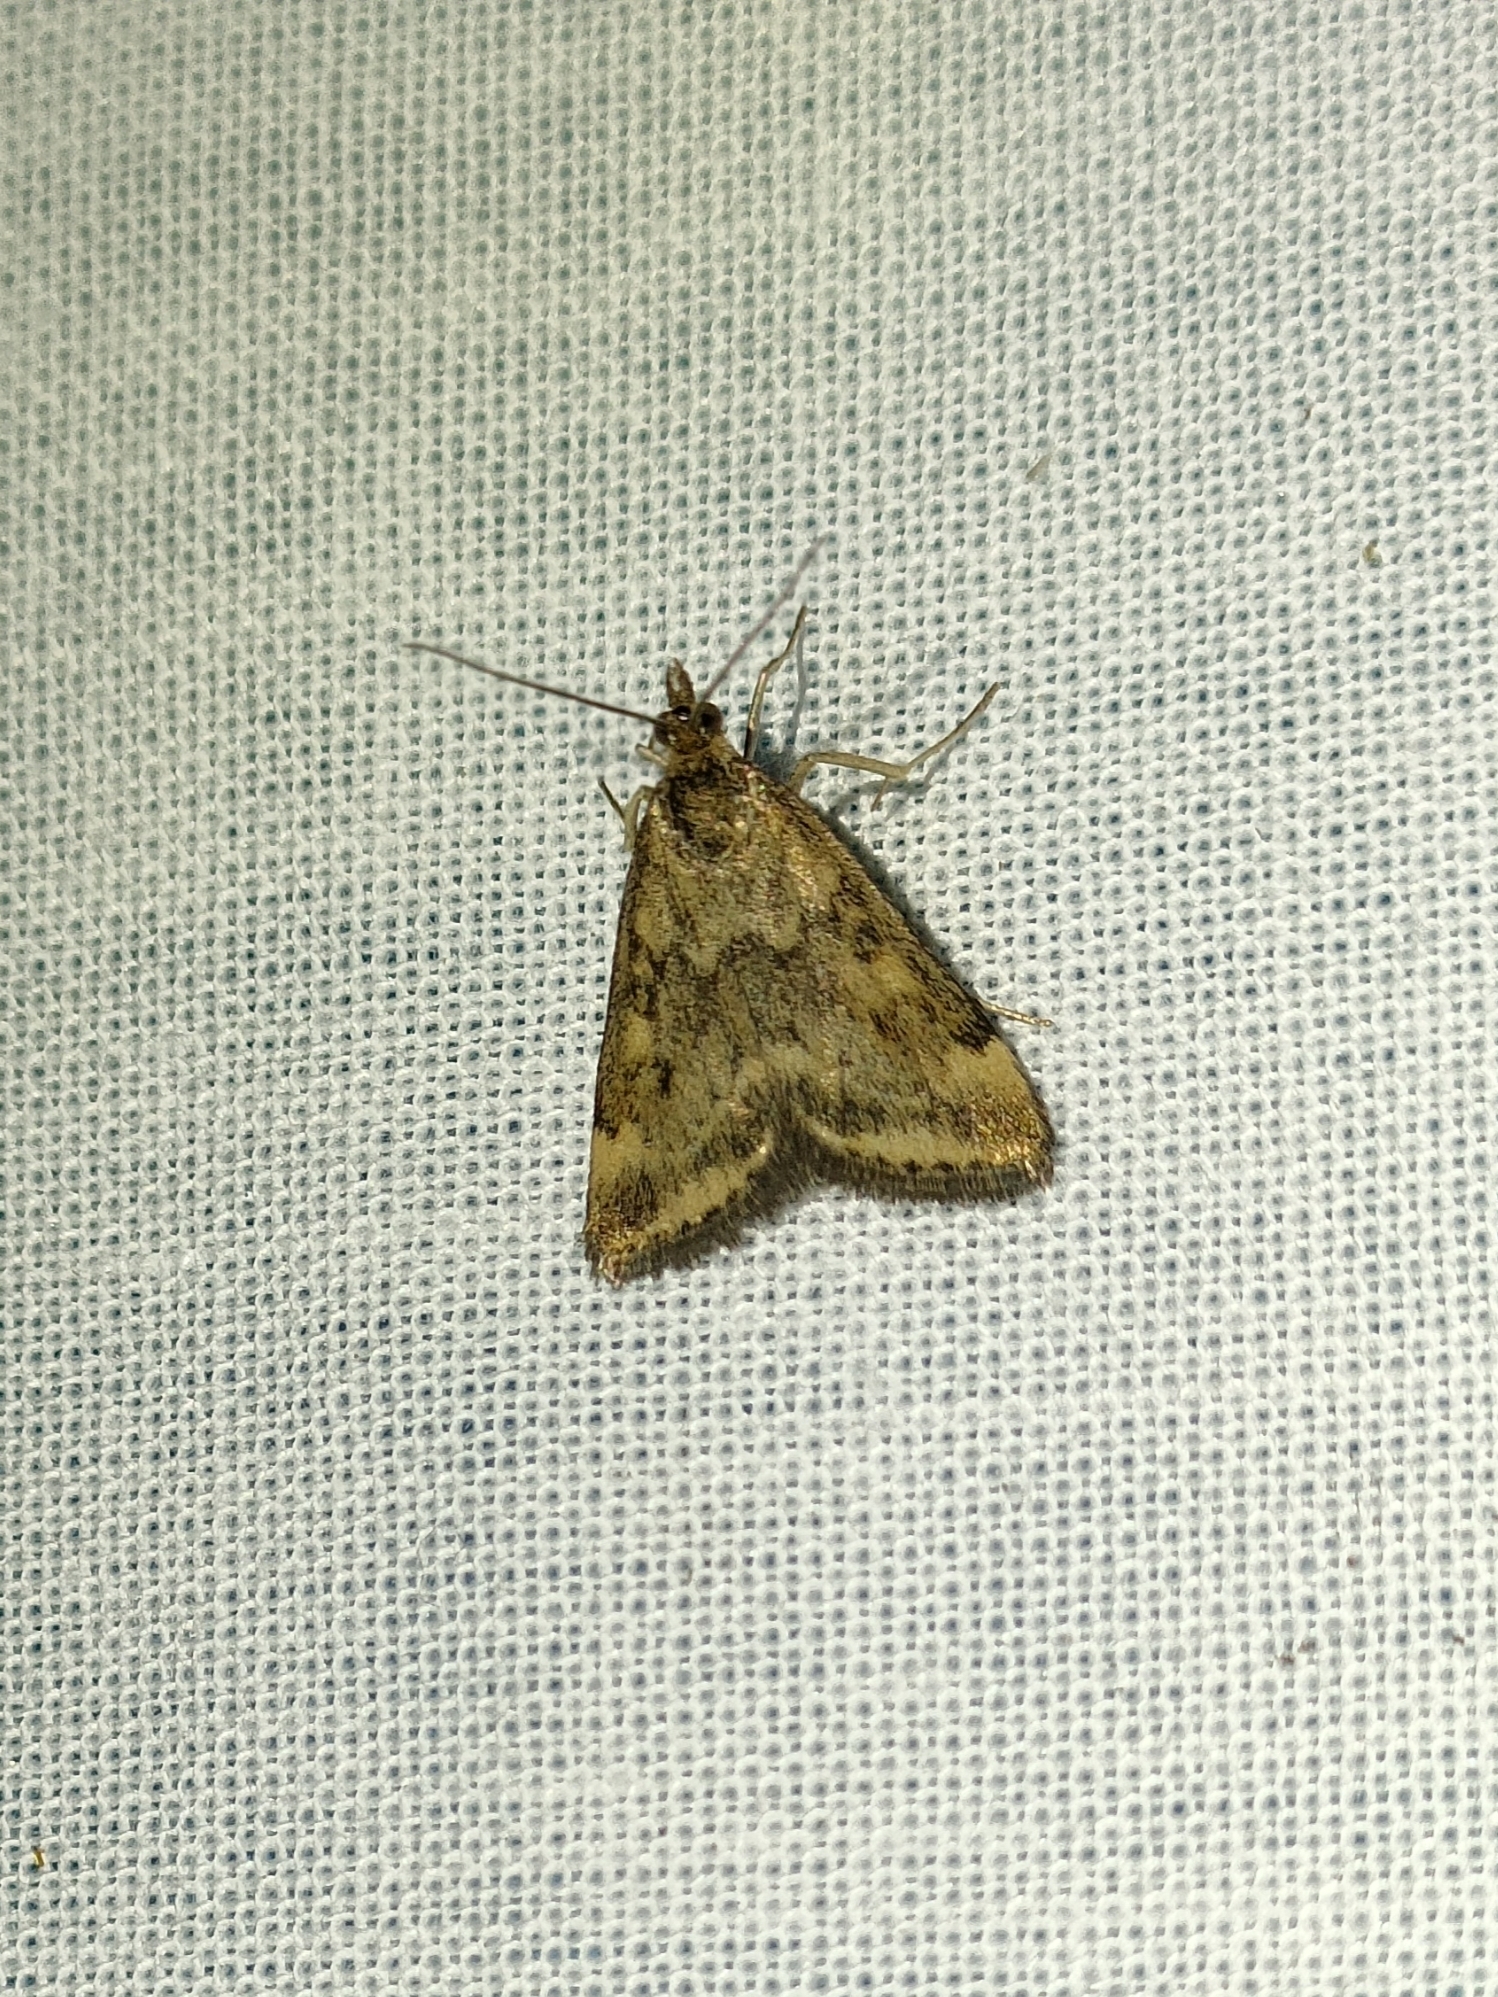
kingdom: Animalia
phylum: Arthropoda
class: Insecta
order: Lepidoptera
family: Crambidae
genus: Pyrausta
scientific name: Pyrausta despicata
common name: Straw-barred pearl
